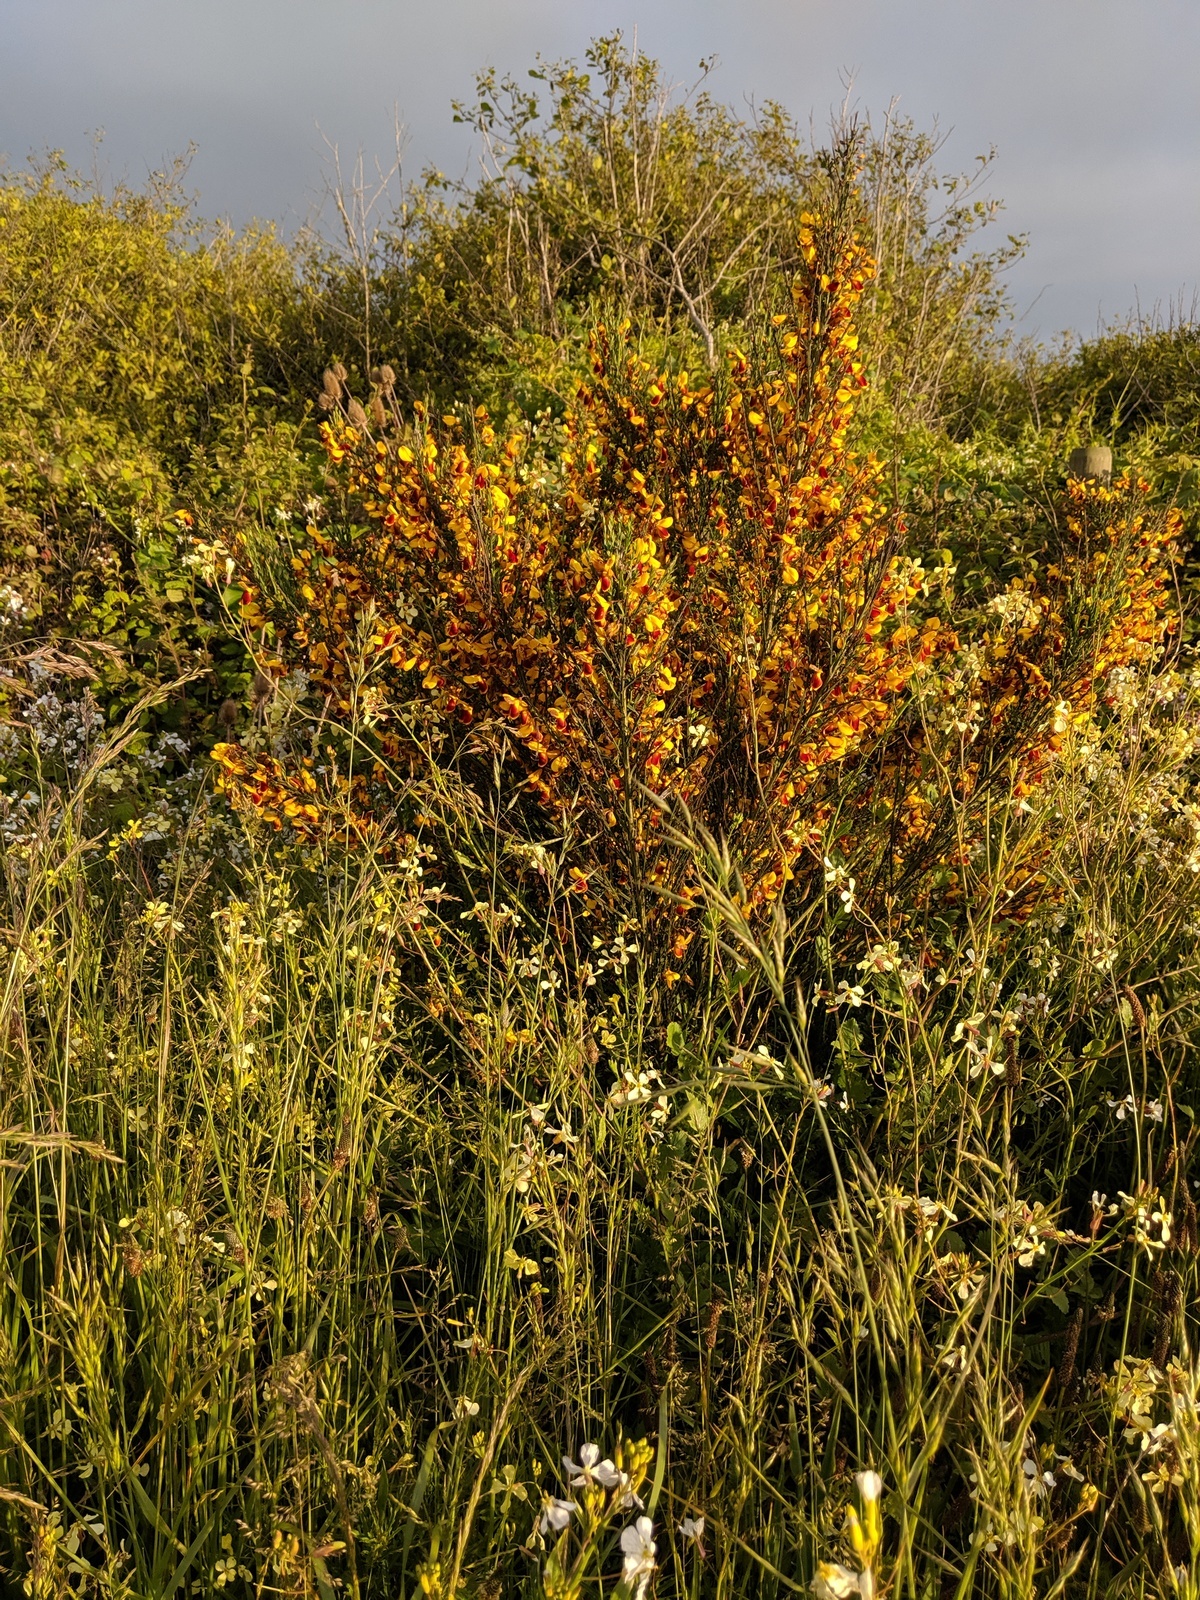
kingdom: Plantae
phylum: Tracheophyta
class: Magnoliopsida
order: Fabales
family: Fabaceae
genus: Cytisus
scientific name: Cytisus scoparius
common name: Scotch broom
